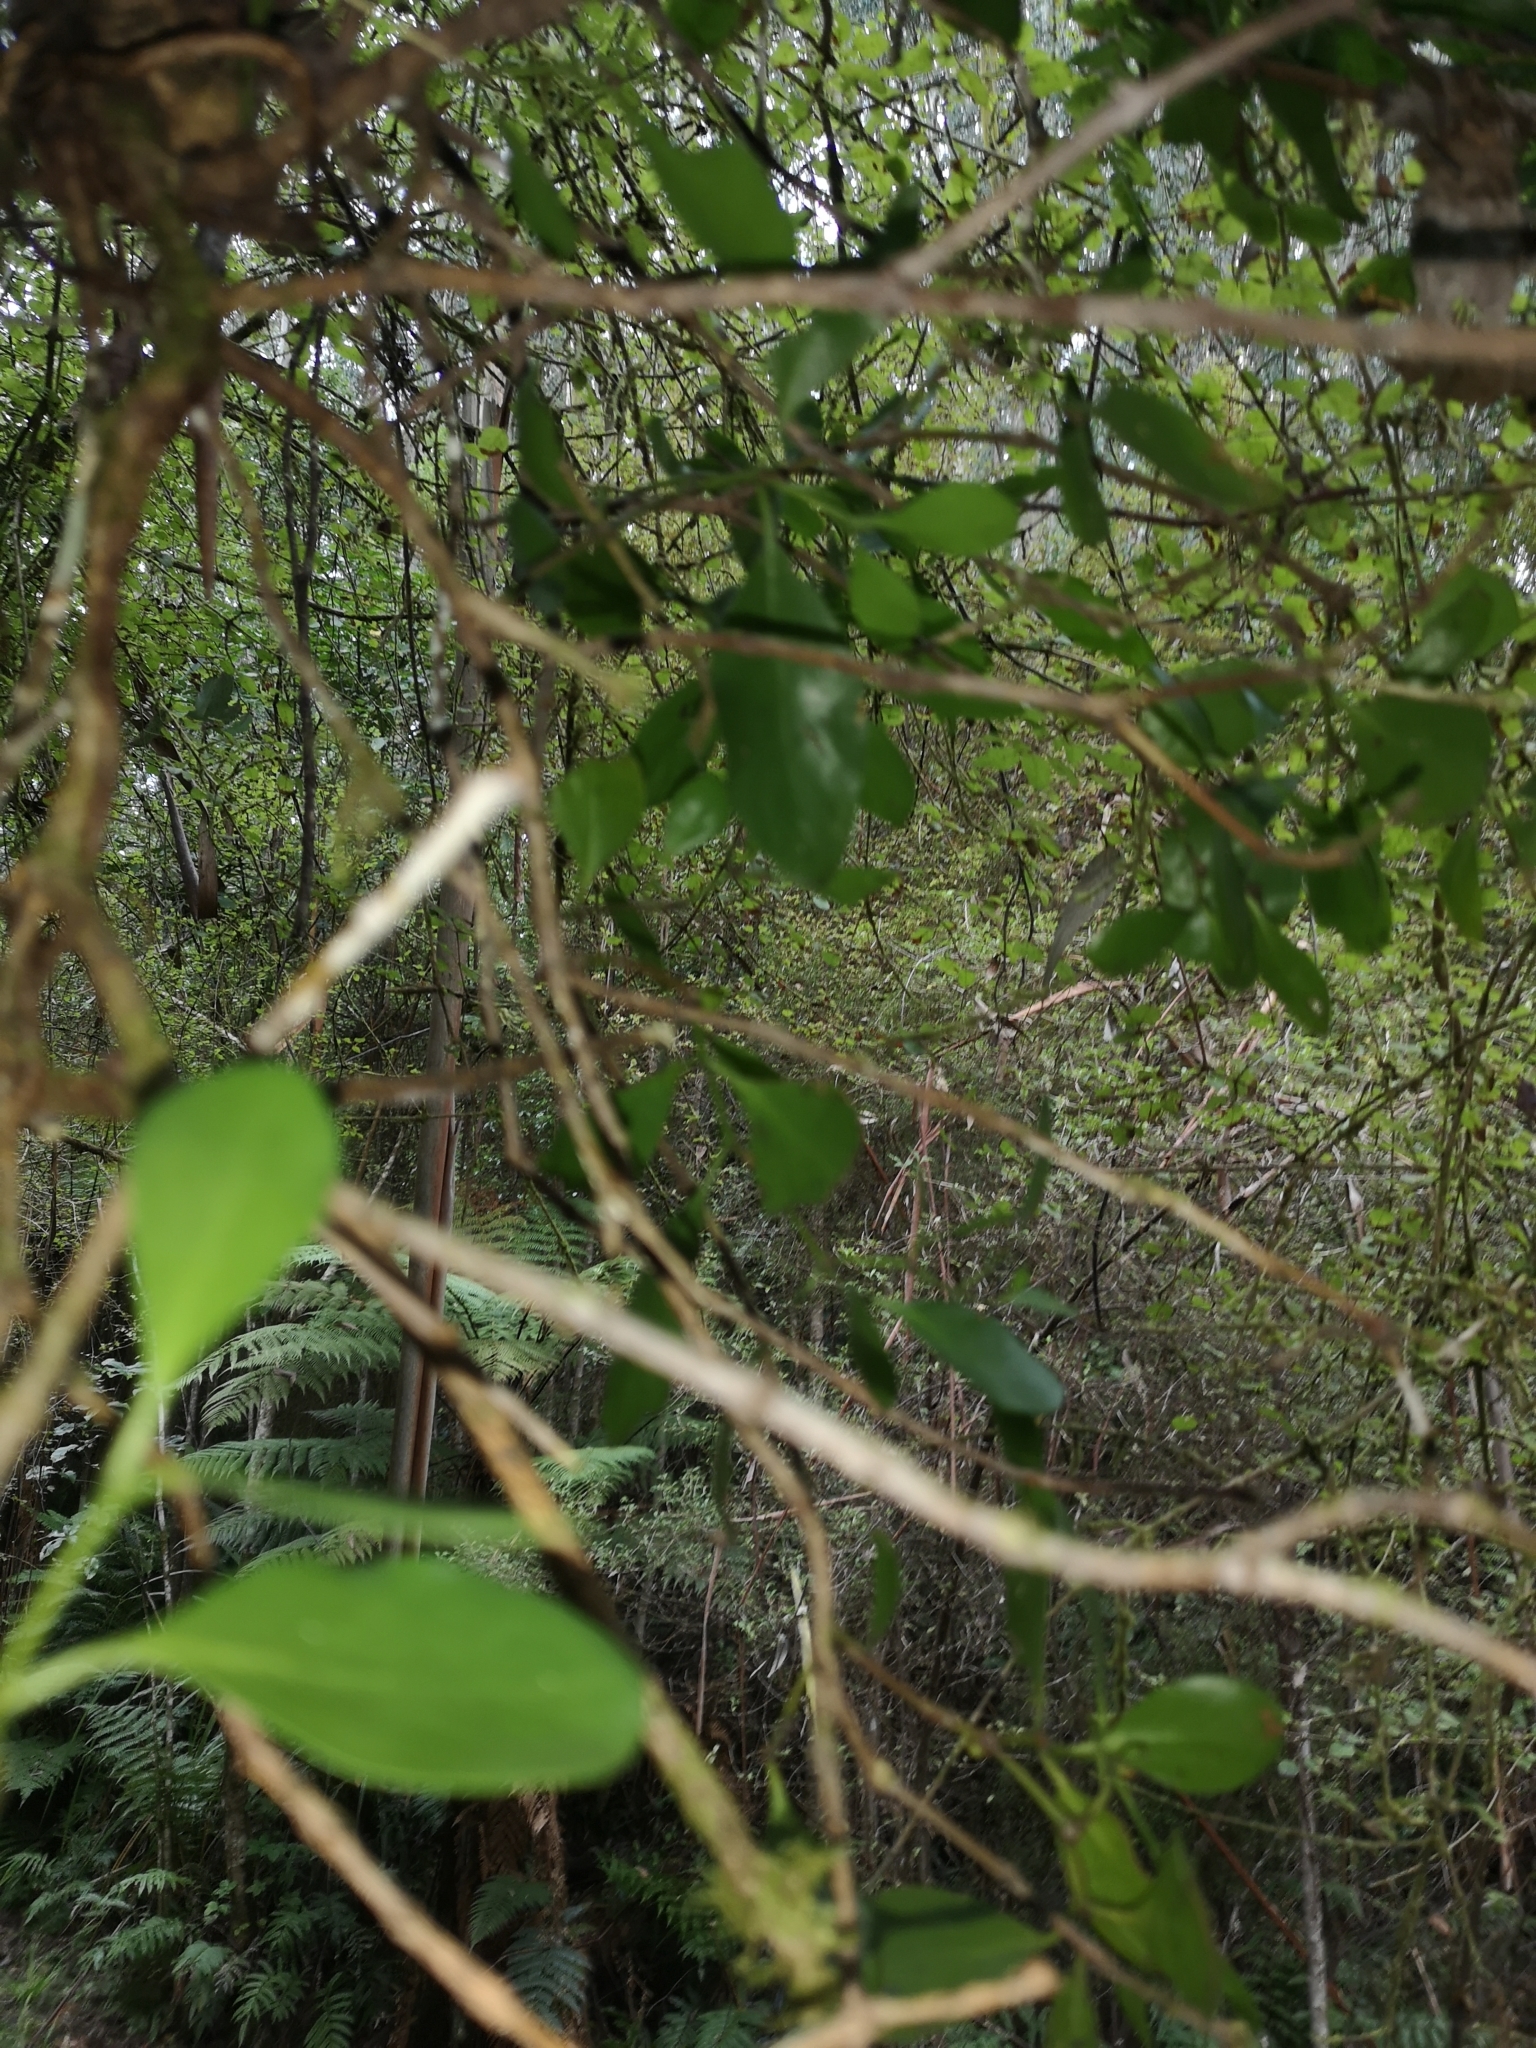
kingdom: Plantae
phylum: Tracheophyta
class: Magnoliopsida
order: Santalales
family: Loranthaceae
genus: Ileostylus
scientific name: Ileostylus micranthus
